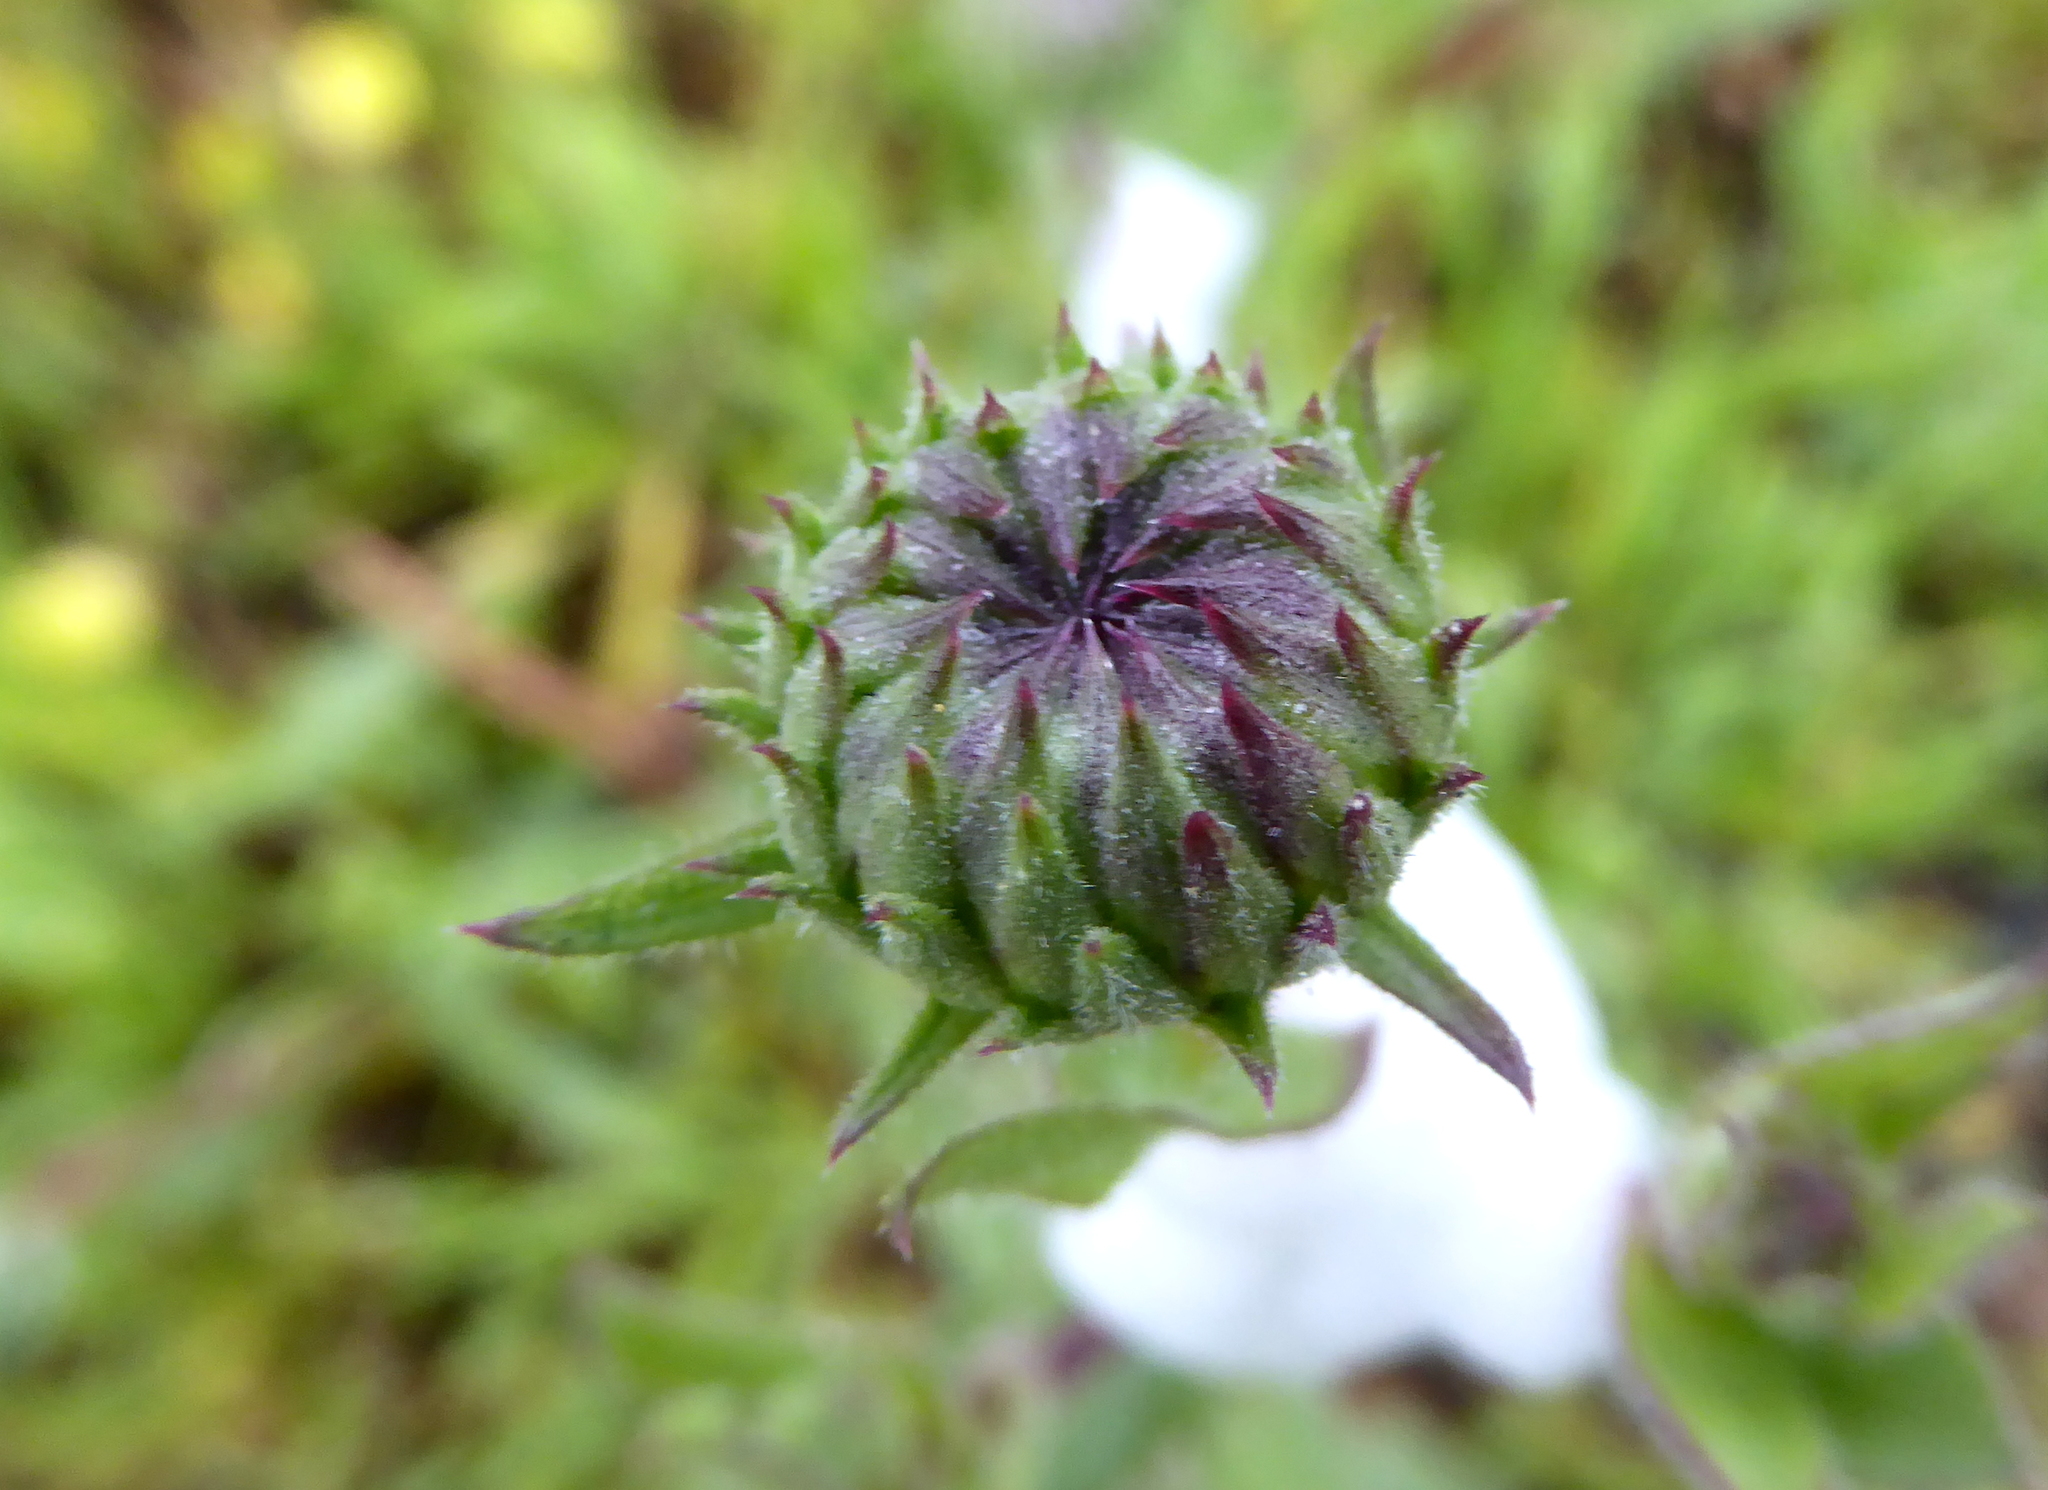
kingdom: Plantae
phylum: Tracheophyta
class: Magnoliopsida
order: Asterales
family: Asteraceae
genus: Grindelia
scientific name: Grindelia hirsutula
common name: Hairy gumweed
